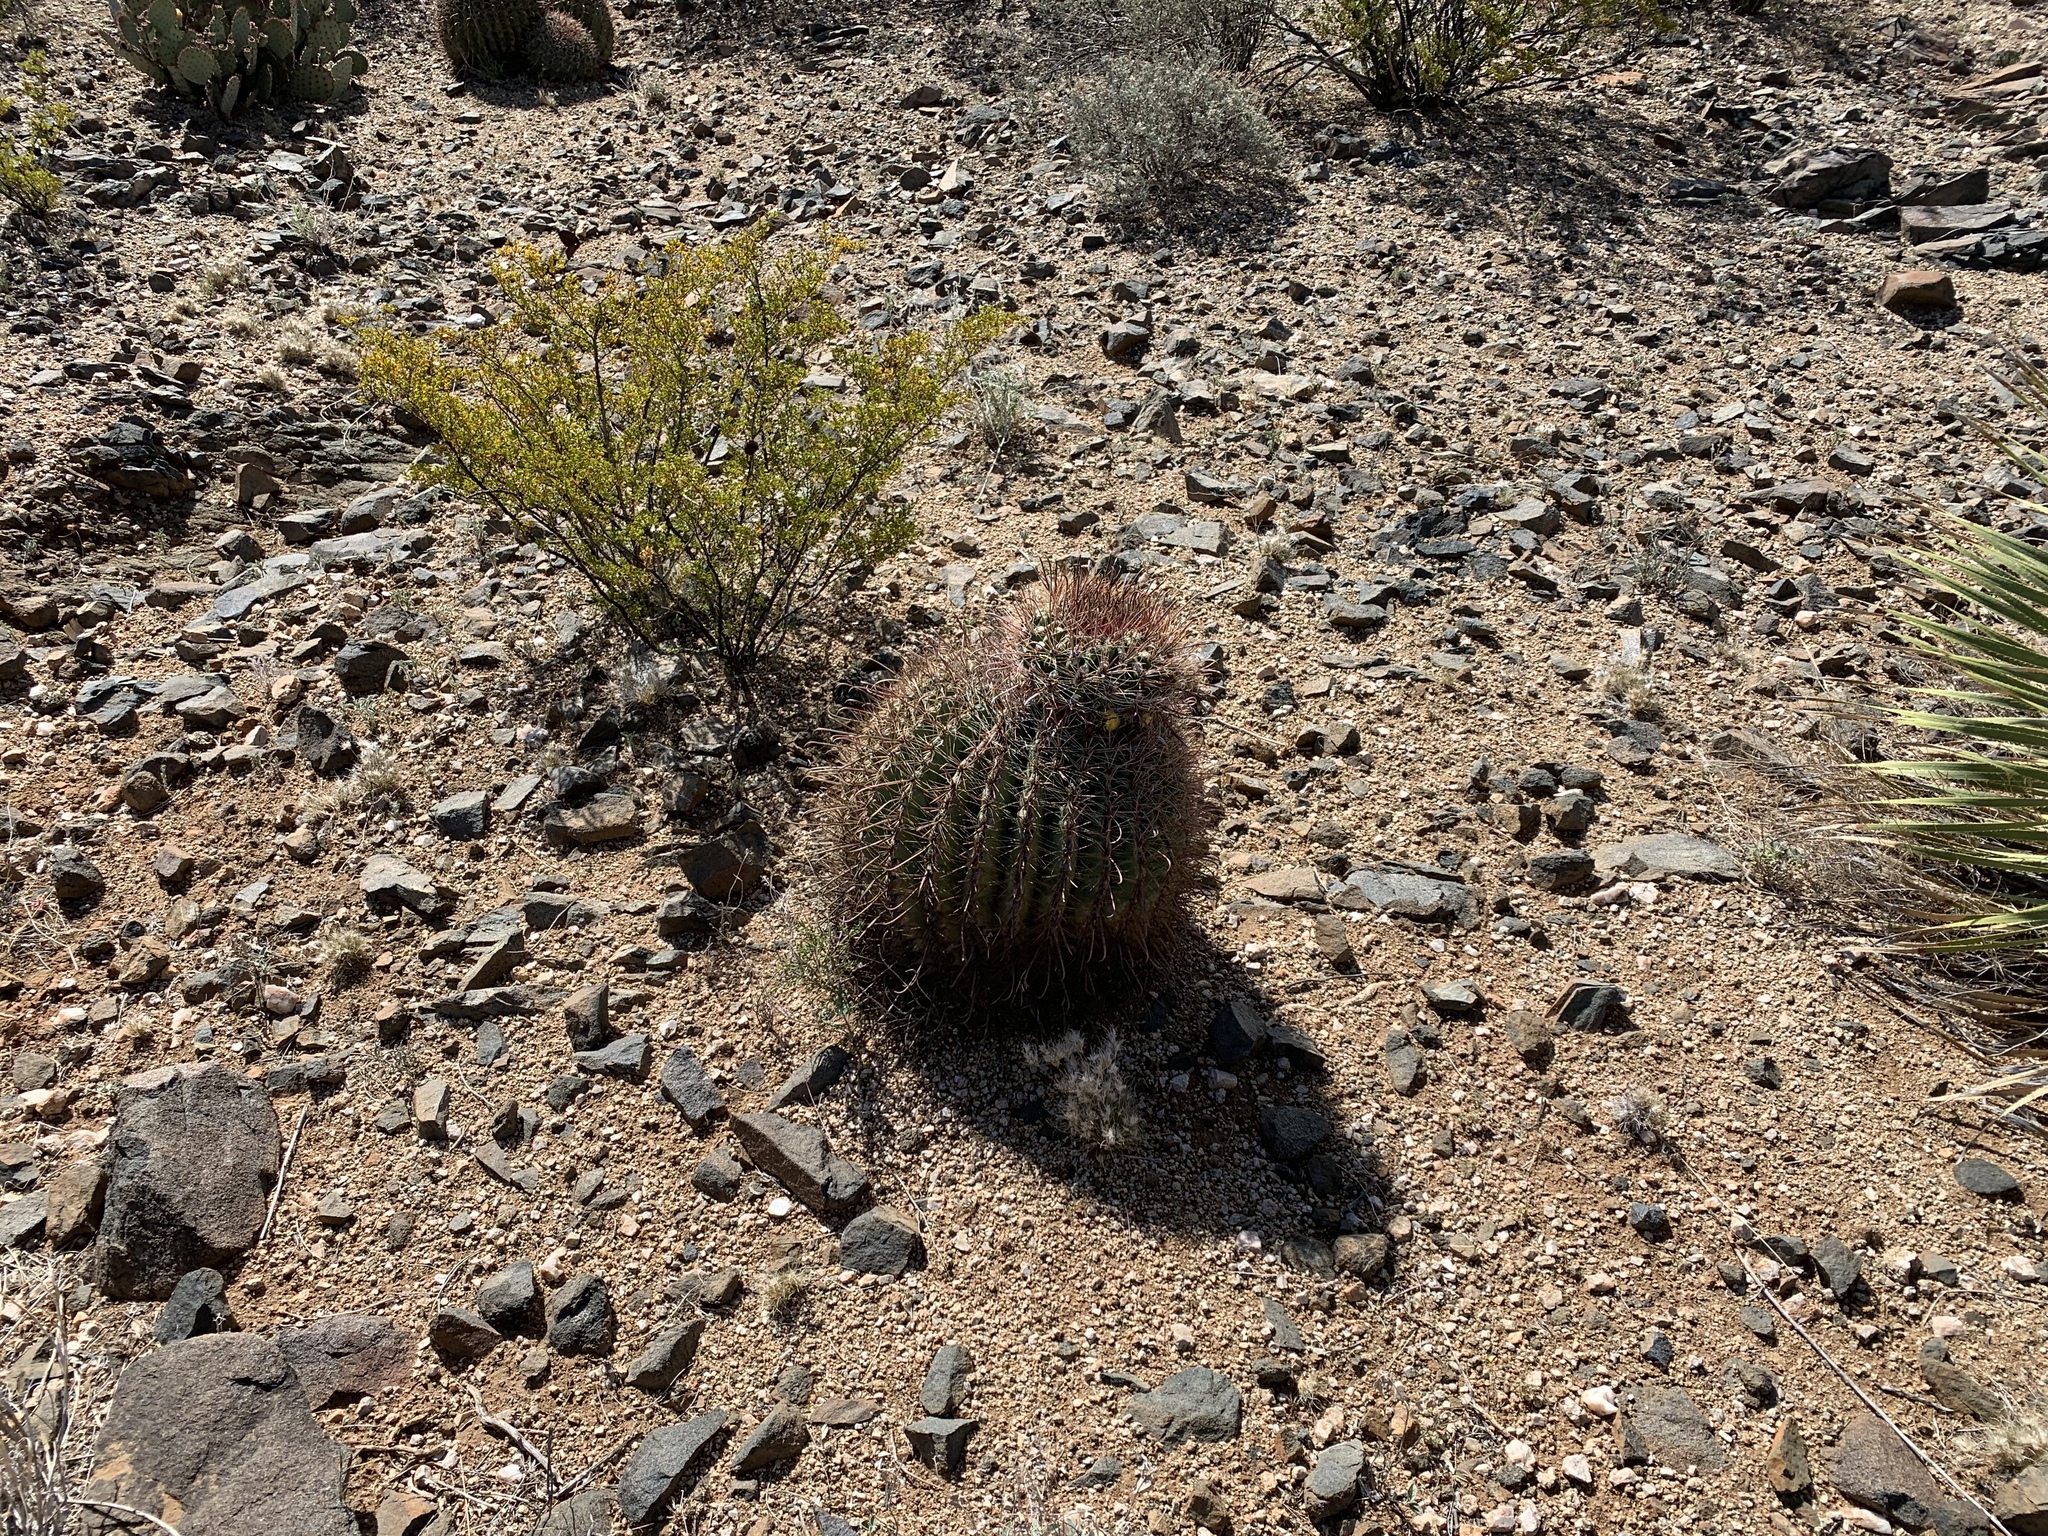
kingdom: Plantae
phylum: Tracheophyta
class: Magnoliopsida
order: Caryophyllales
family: Cactaceae
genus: Ferocactus
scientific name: Ferocactus wislizeni
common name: Candy barrel cactus
